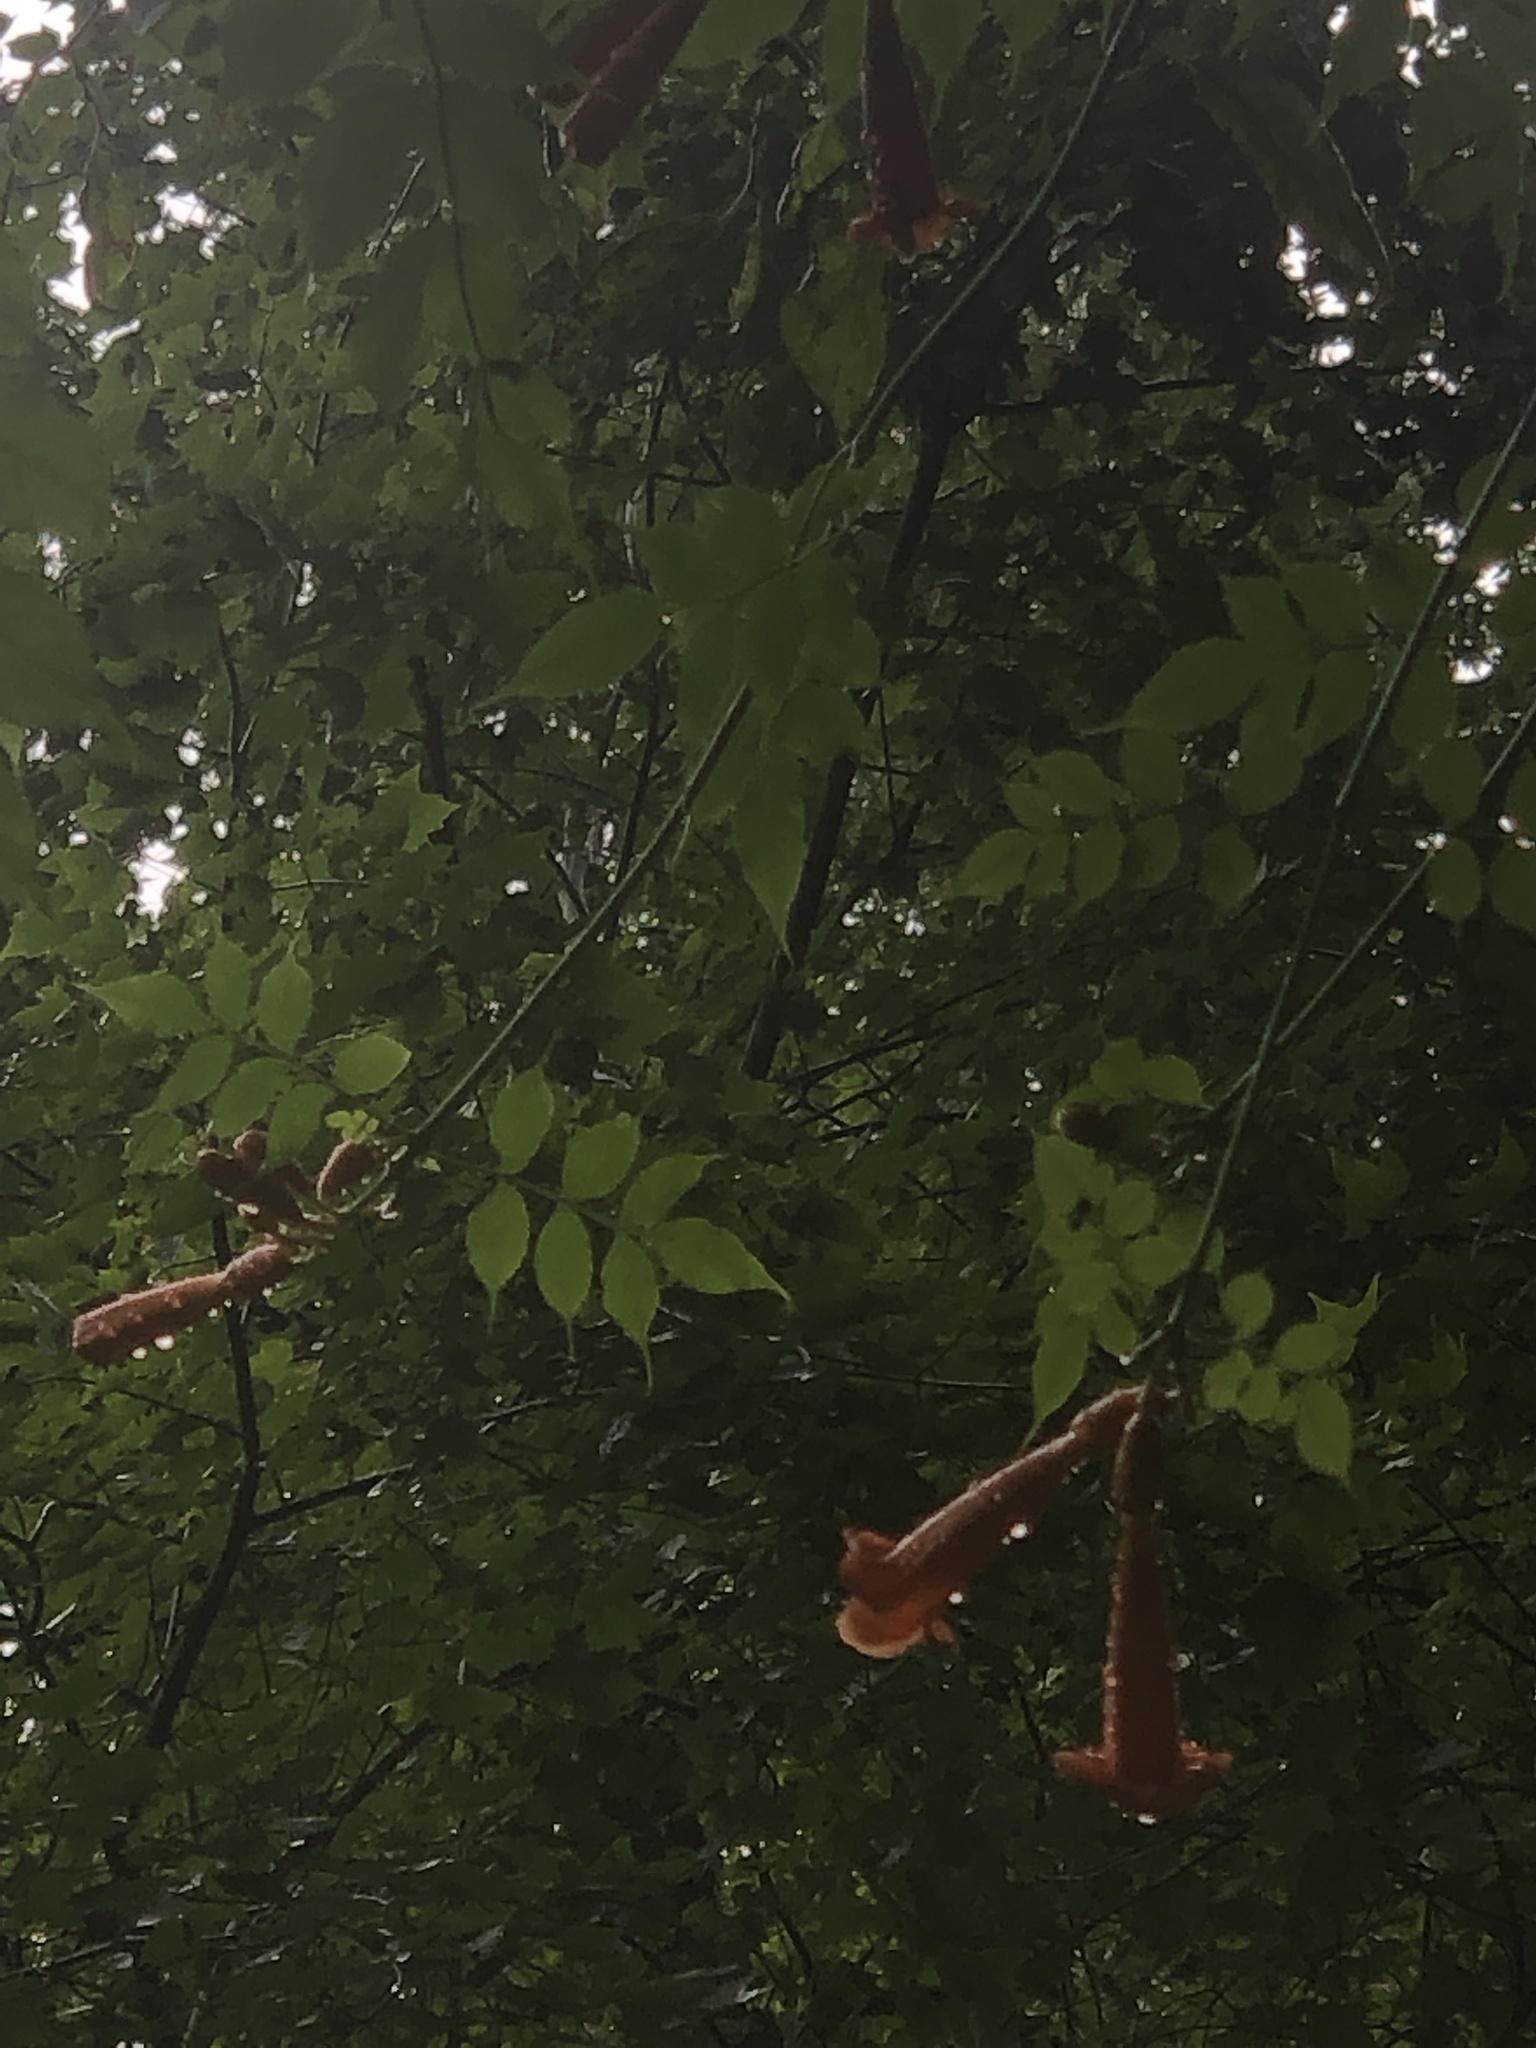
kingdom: Plantae
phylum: Tracheophyta
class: Magnoliopsida
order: Lamiales
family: Bignoniaceae
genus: Campsis
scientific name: Campsis radicans
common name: Trumpet-creeper
